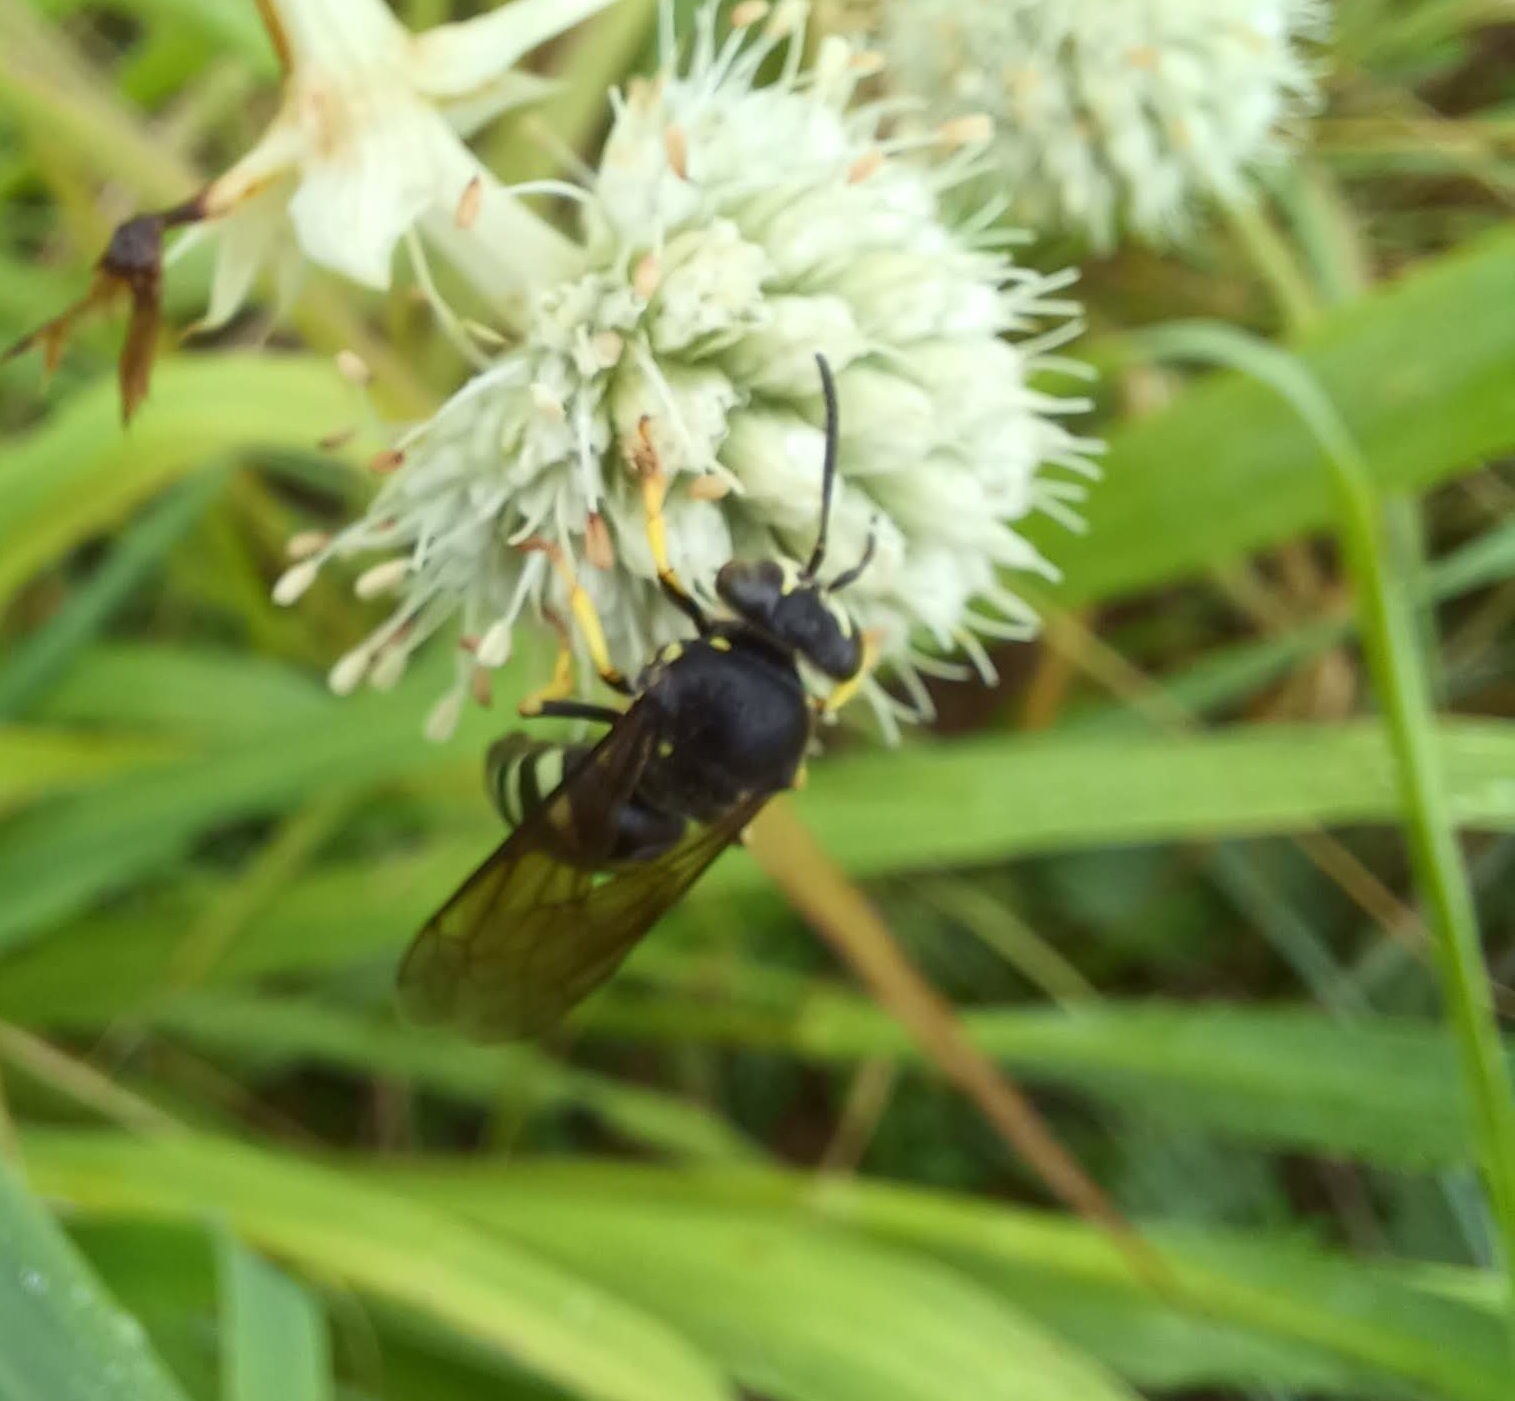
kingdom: Animalia
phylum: Arthropoda
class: Insecta
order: Hymenoptera
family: Crabronidae
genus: Bicyrtes
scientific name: Bicyrtes quadrifasciatus
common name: Four-banded stink bug hunter wasp
